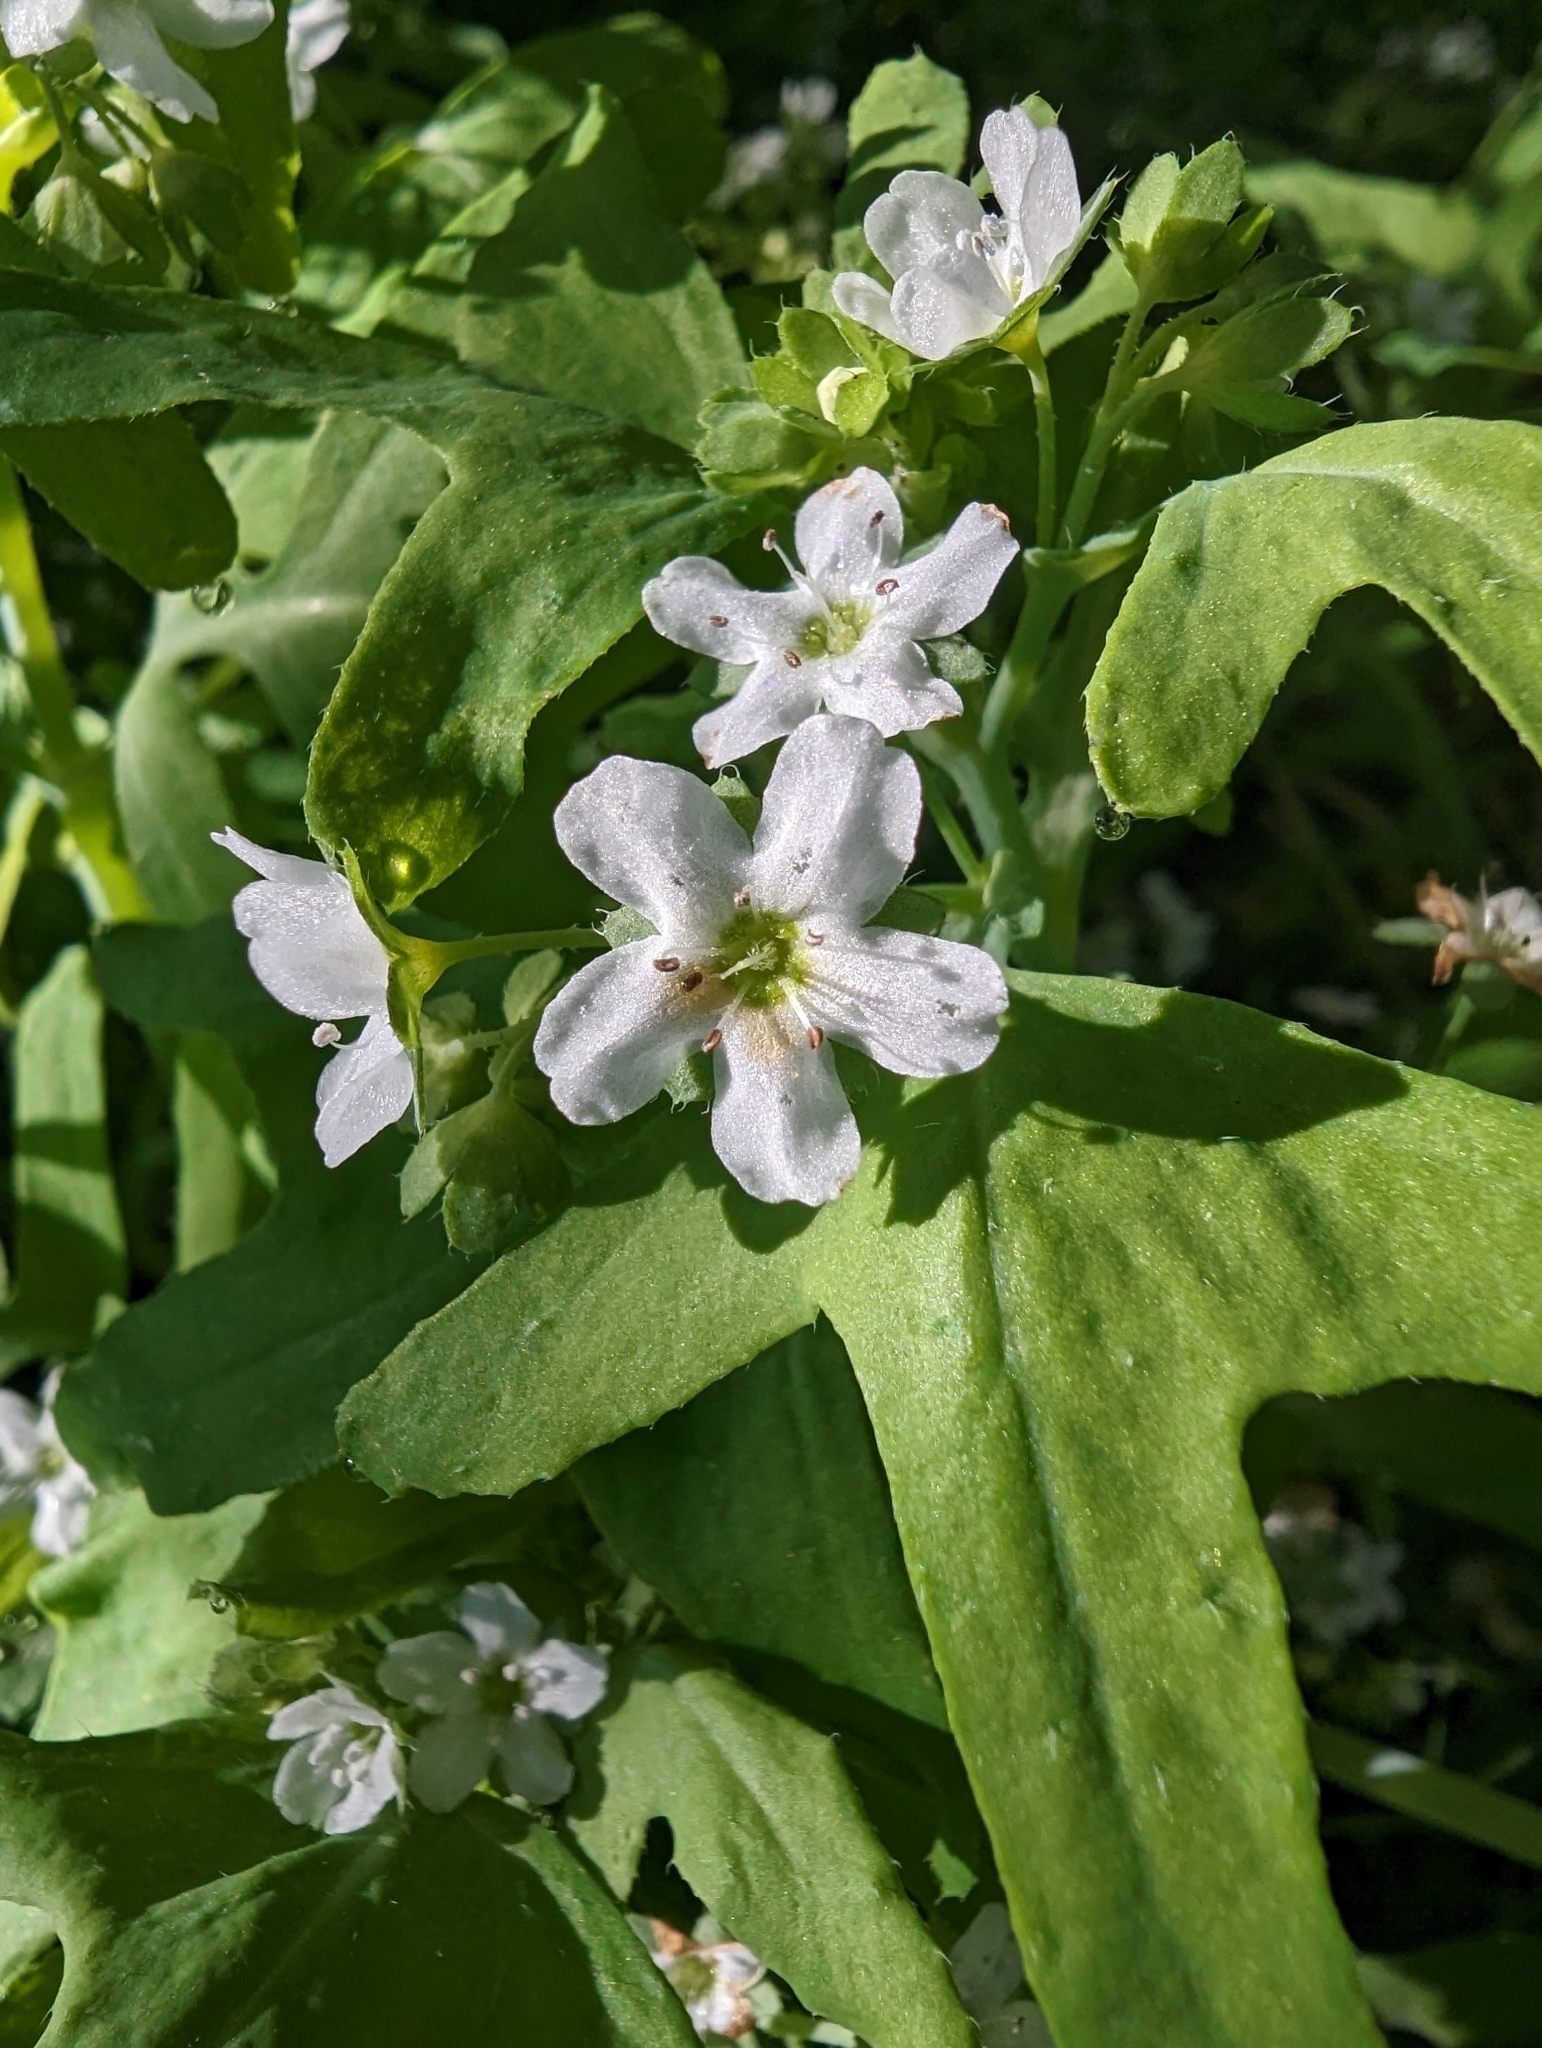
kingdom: Plantae
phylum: Tracheophyta
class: Magnoliopsida
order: Boraginales
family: Hydrophyllaceae
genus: Pholistoma
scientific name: Pholistoma membranaceum
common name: White fiesta-flower
